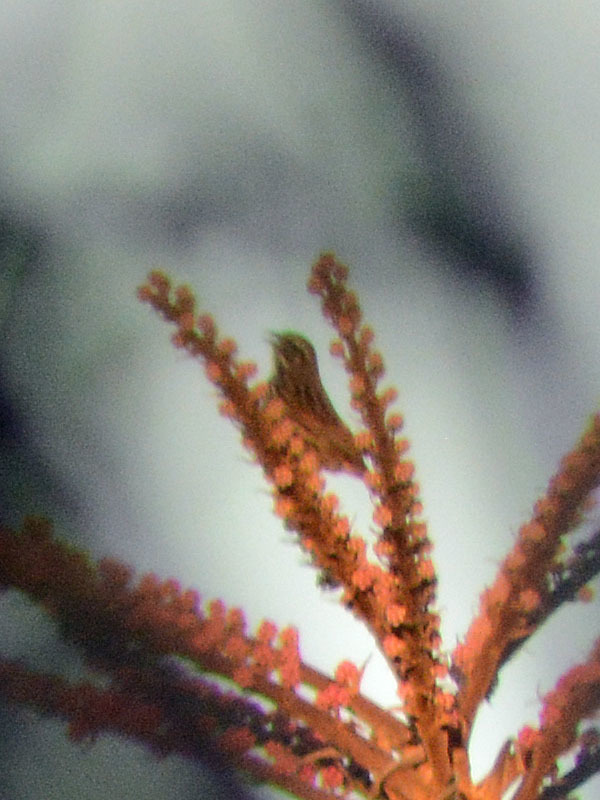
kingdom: Animalia
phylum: Chordata
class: Aves
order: Passeriformes
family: Passerellidae
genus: Melospiza
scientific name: Melospiza melodia
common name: Song sparrow
